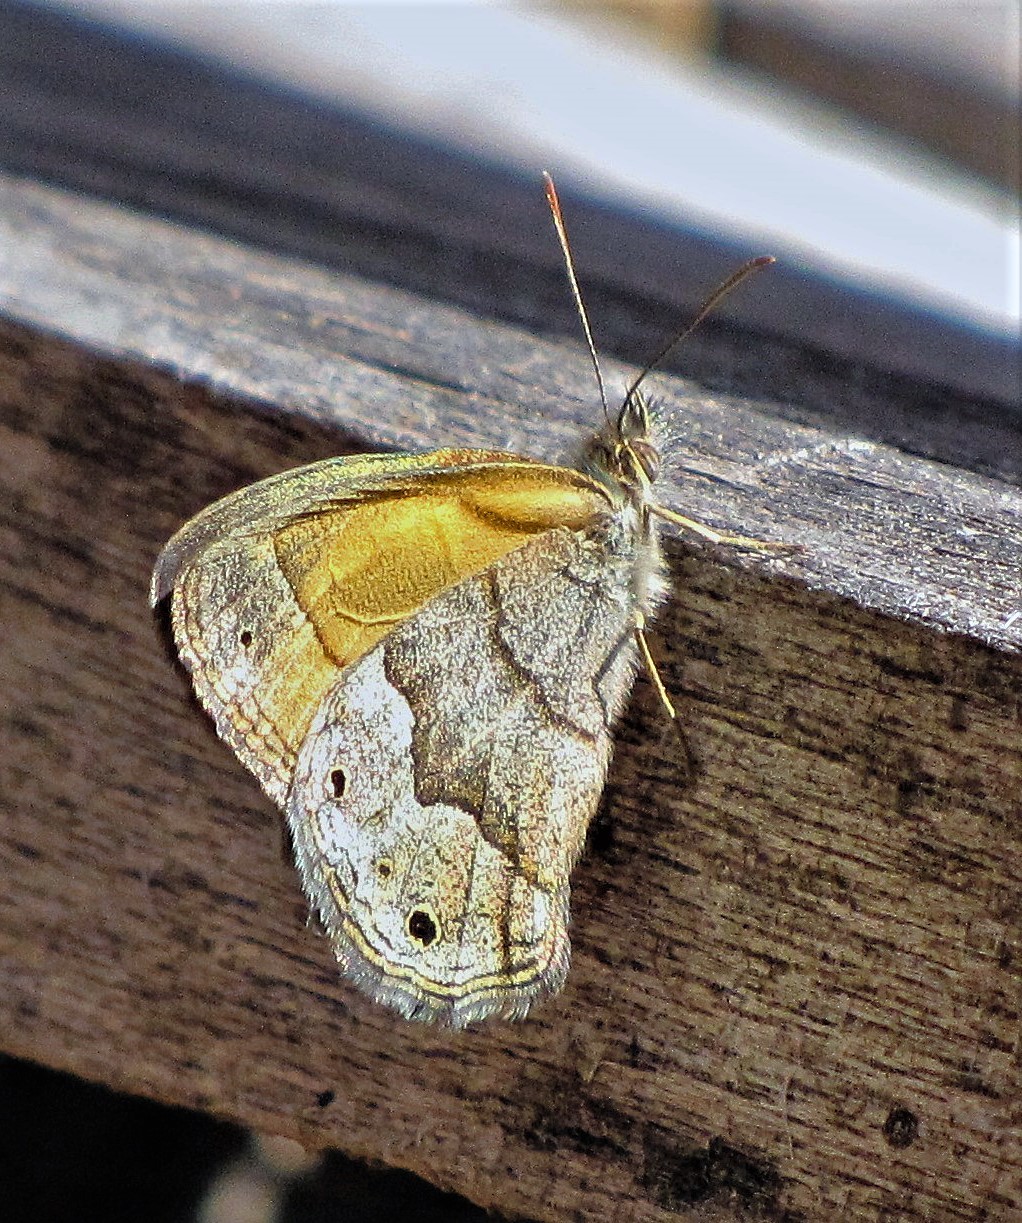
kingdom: Animalia
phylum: Arthropoda
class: Insecta
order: Lepidoptera
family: Nymphalidae
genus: Pharneuptychia
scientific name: Pharneuptychia phares
